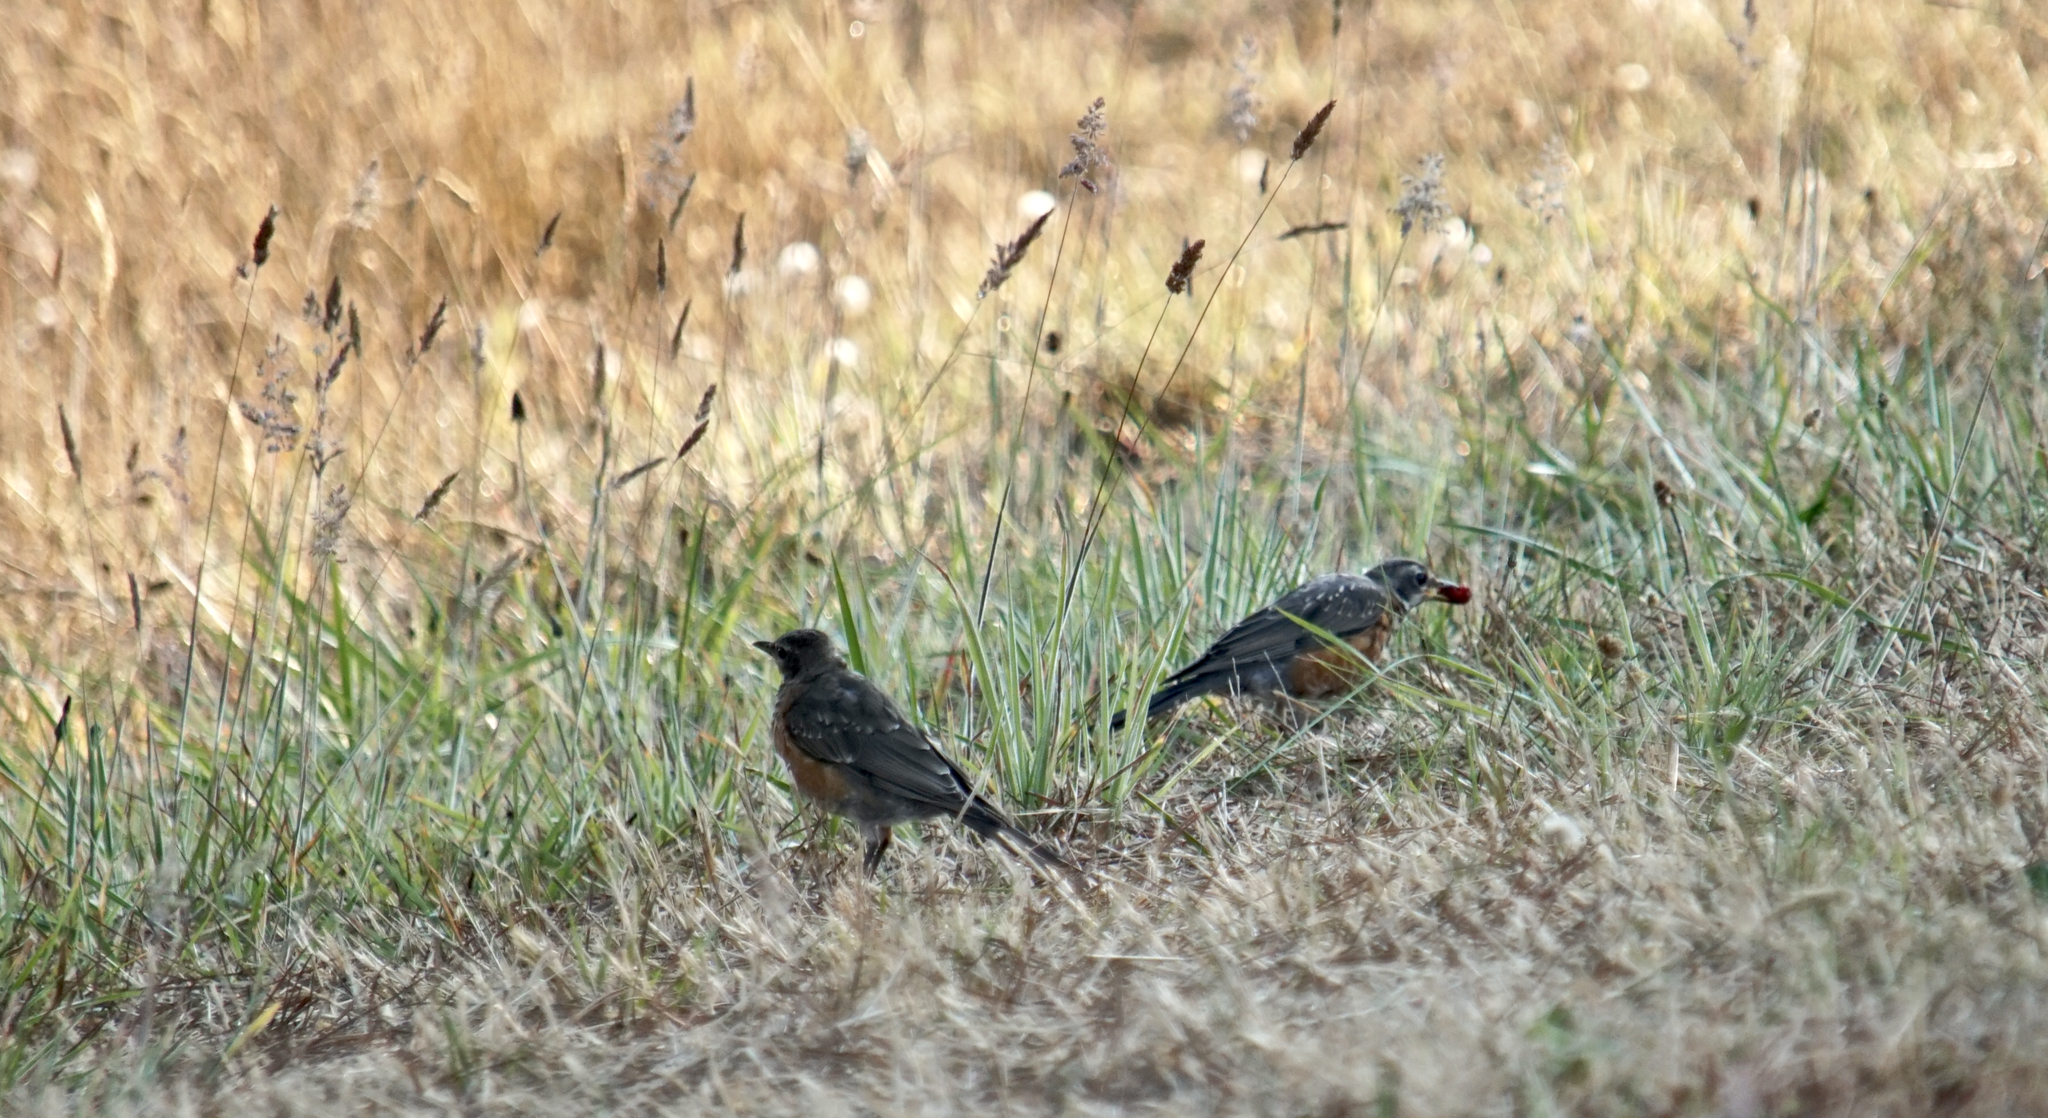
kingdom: Animalia
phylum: Chordata
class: Aves
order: Passeriformes
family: Turdidae
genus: Turdus
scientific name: Turdus migratorius
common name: American robin
